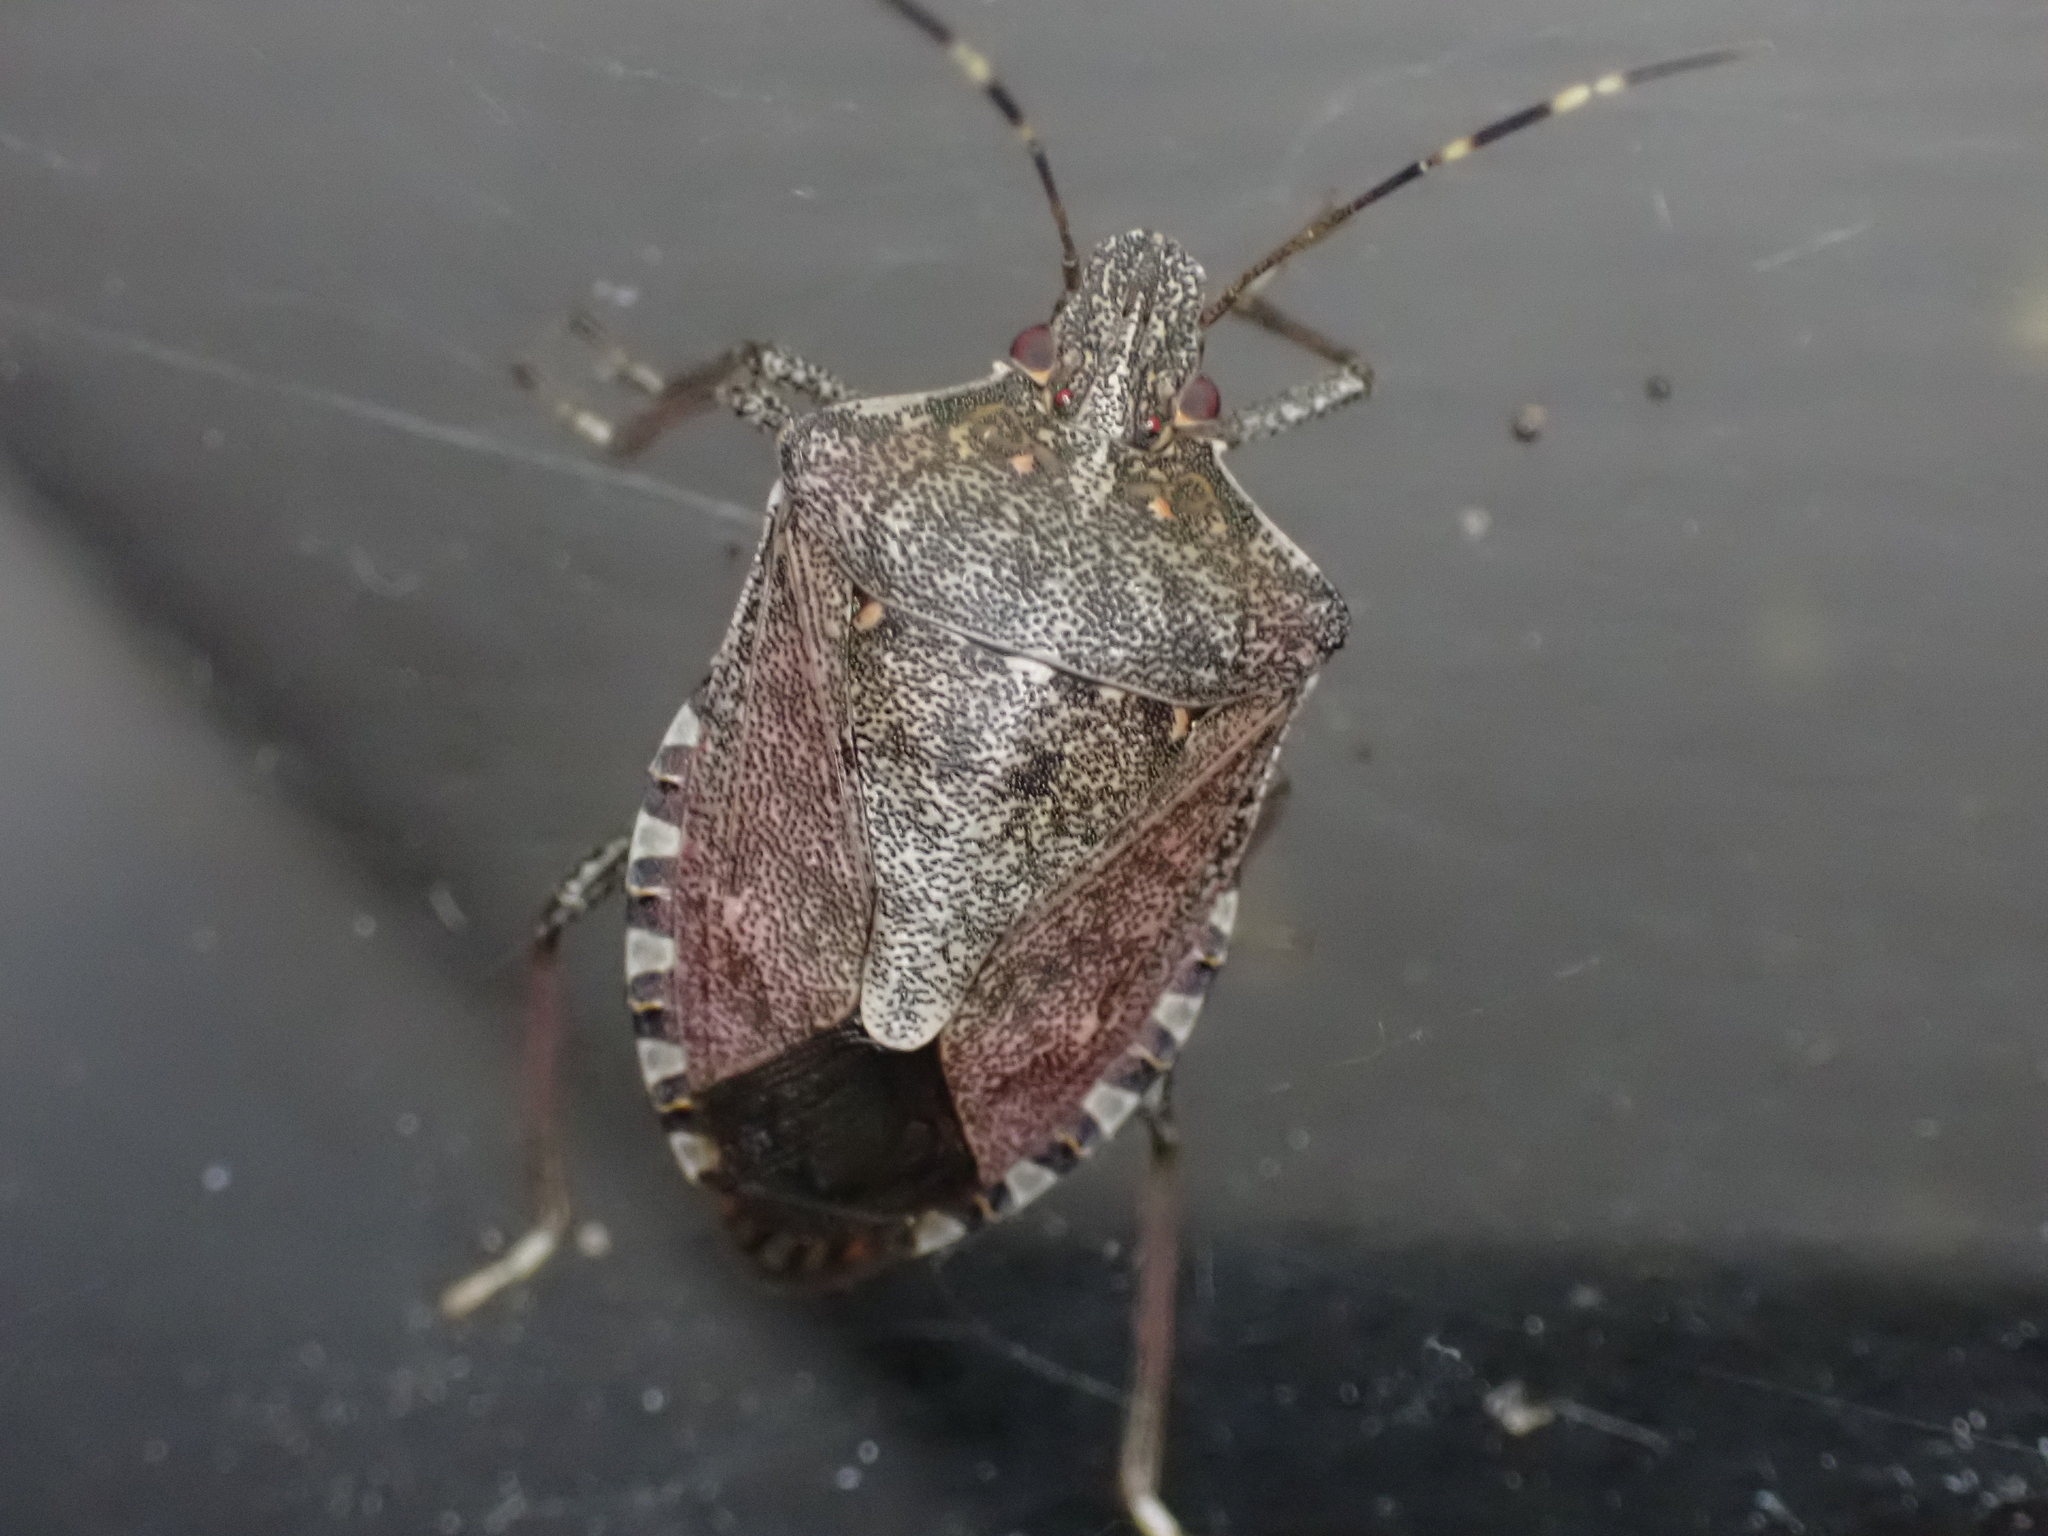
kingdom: Animalia
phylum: Arthropoda
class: Insecta
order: Hemiptera
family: Pentatomidae
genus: Halyomorpha
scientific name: Halyomorpha halys
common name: Brown marmorated stink bug
